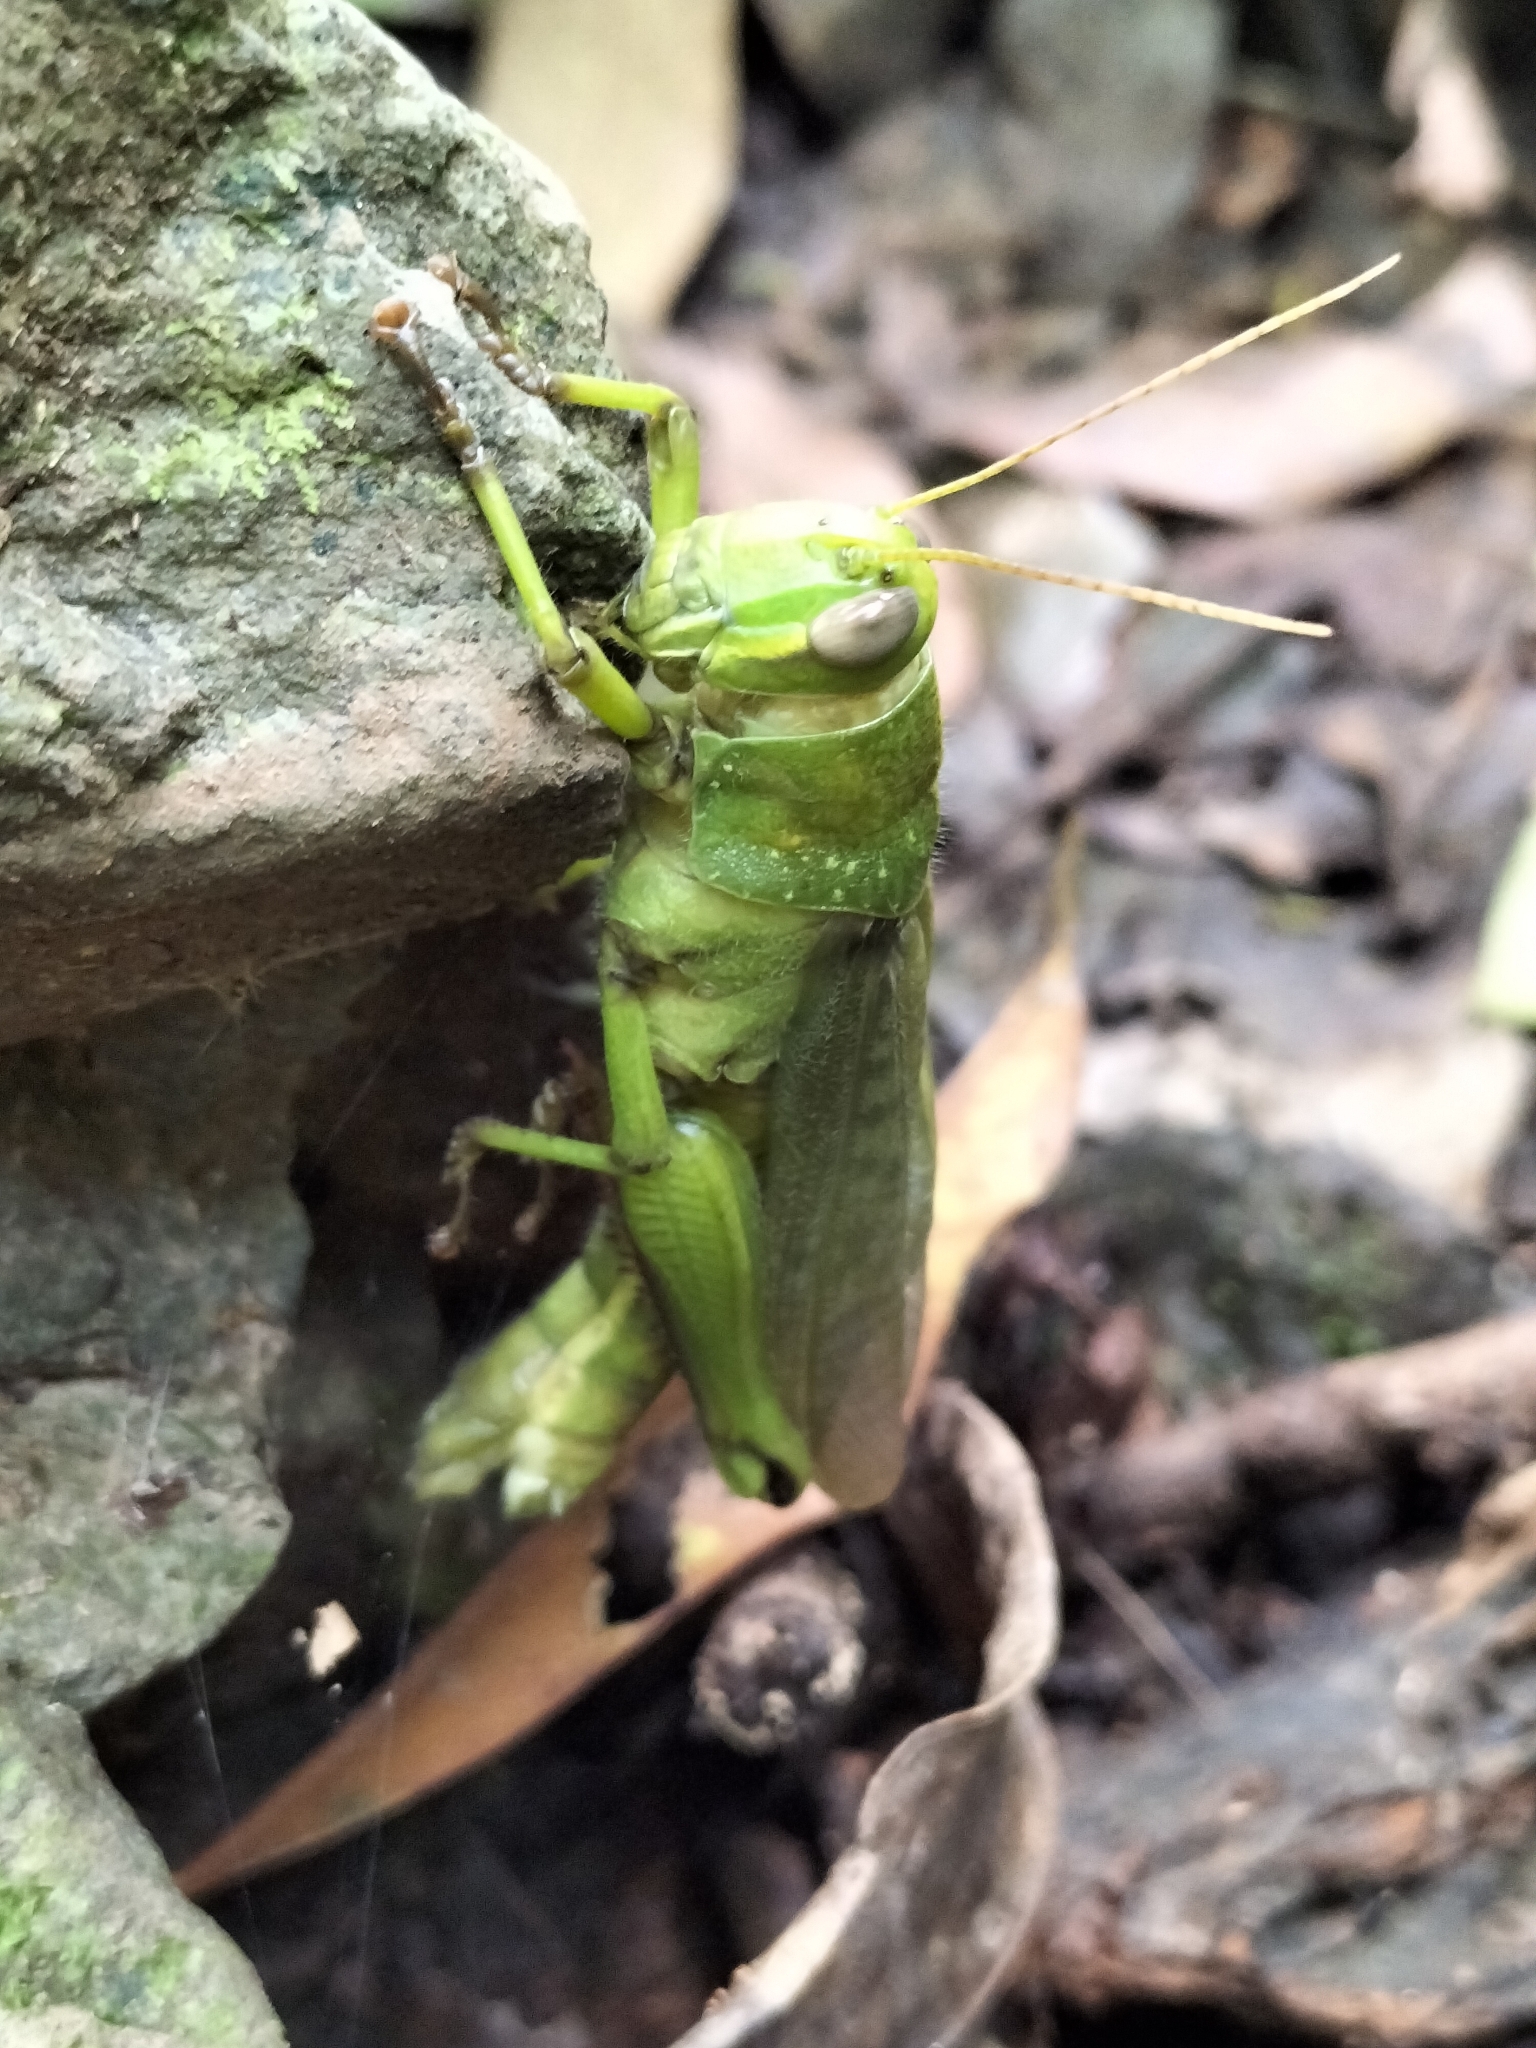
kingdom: Animalia
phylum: Arthropoda
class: Insecta
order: Orthoptera
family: Acrididae
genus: Valanga
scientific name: Valanga irregularis
